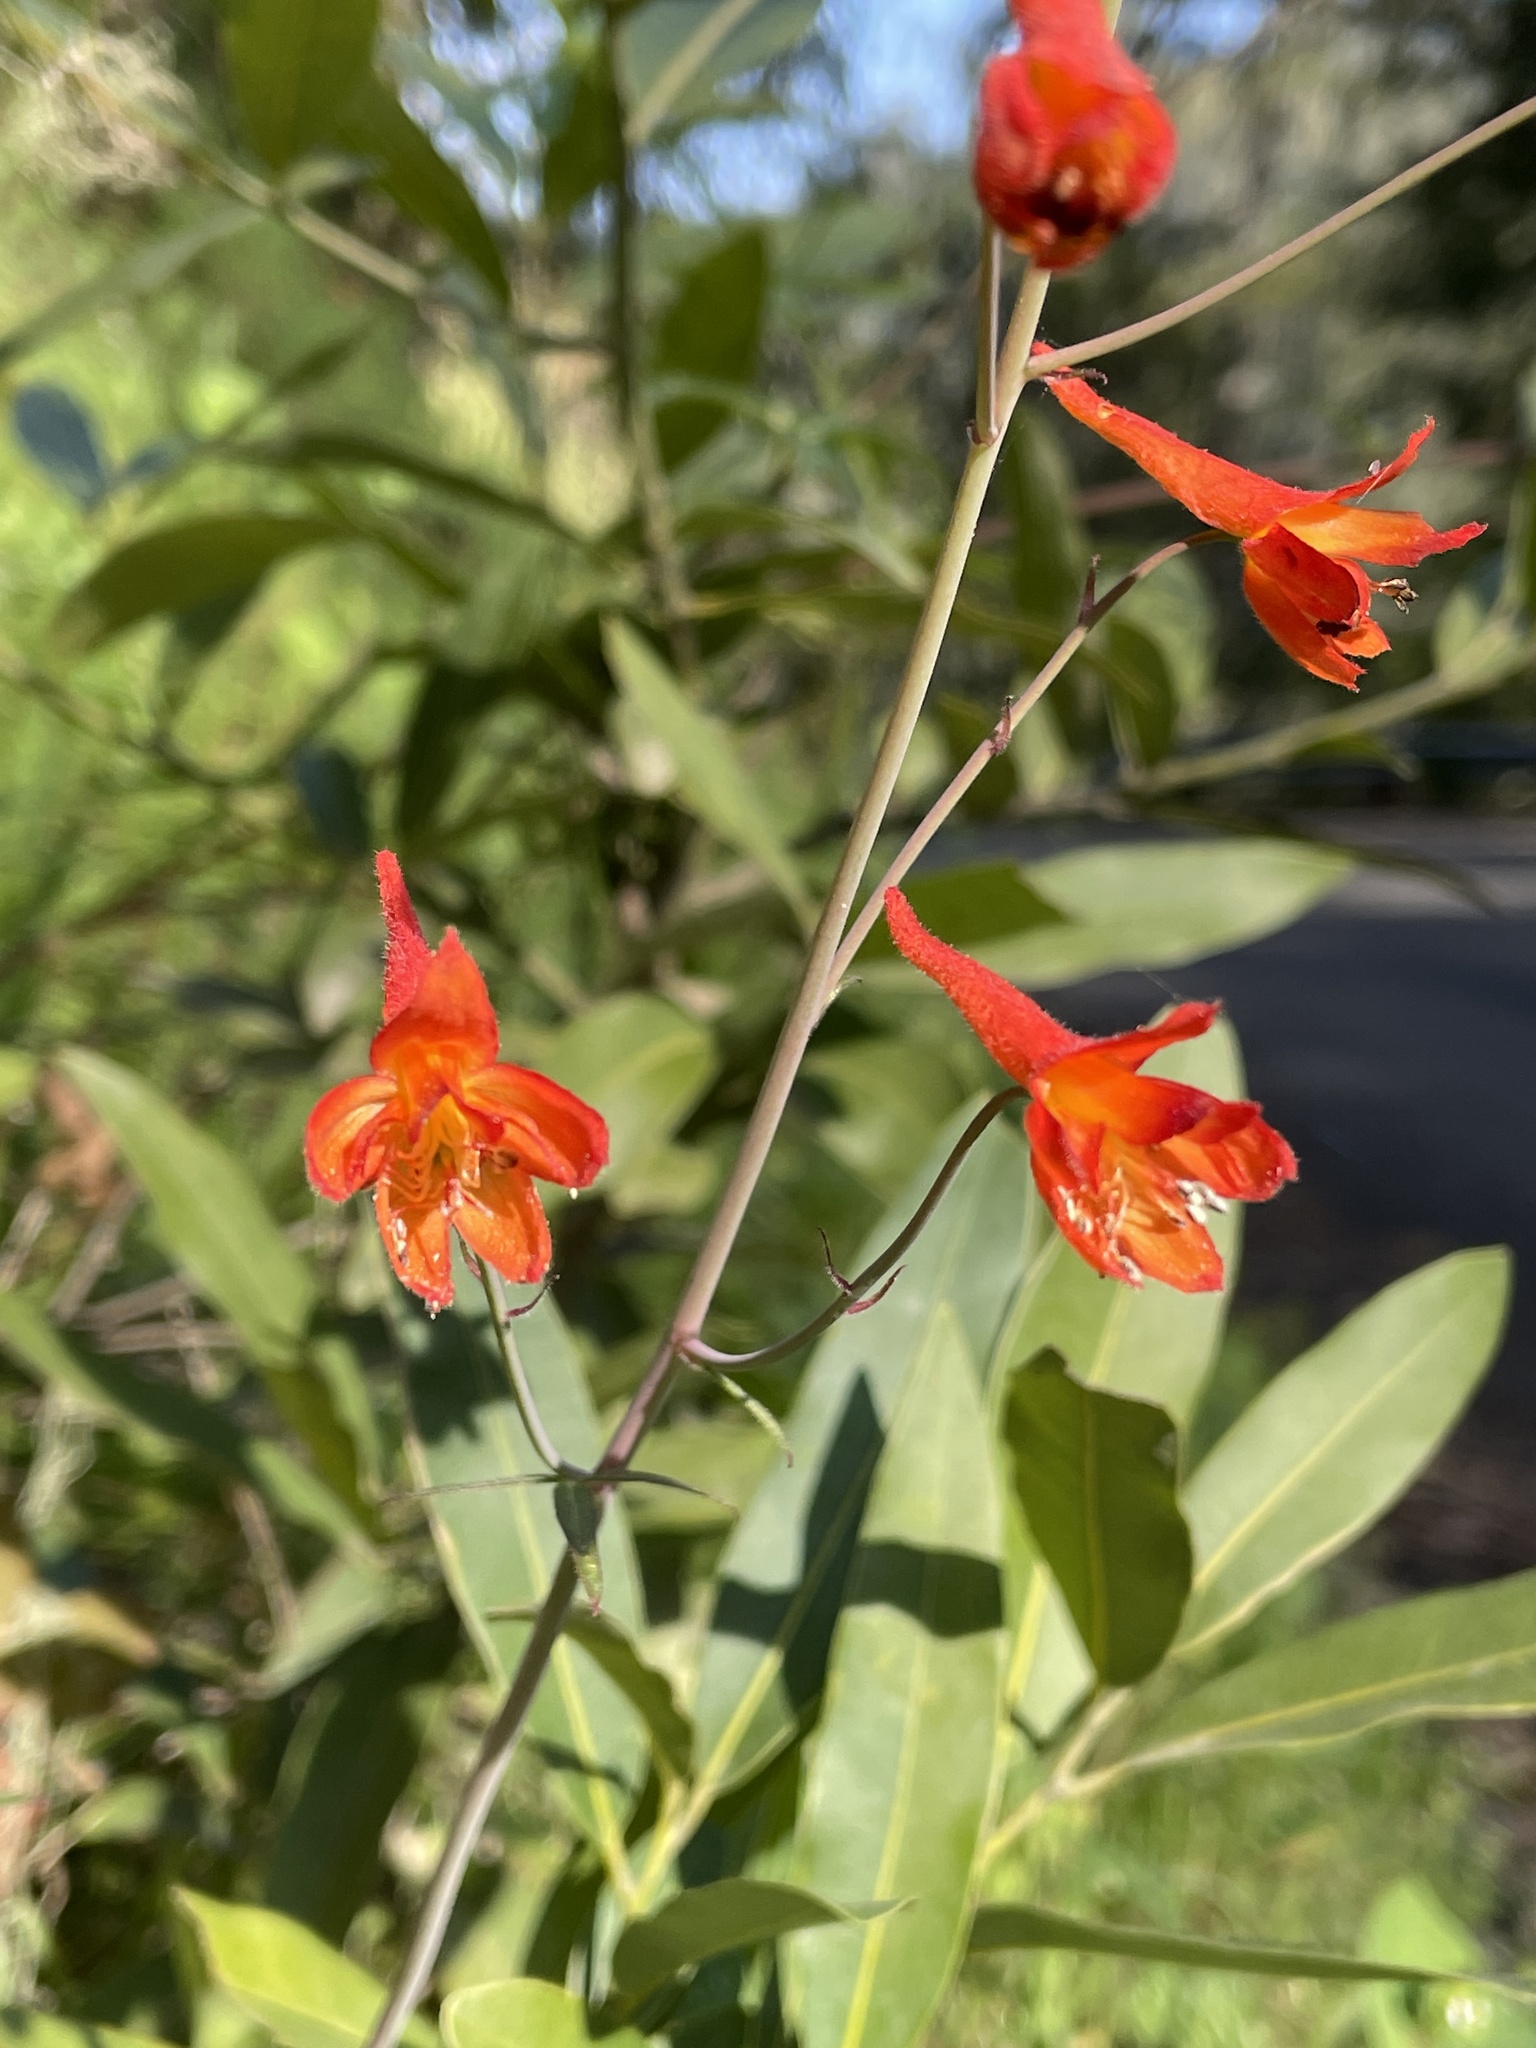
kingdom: Plantae
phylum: Tracheophyta
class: Magnoliopsida
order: Ranunculales
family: Ranunculaceae
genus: Delphinium
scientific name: Delphinium nudicaule
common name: Red larkspur
